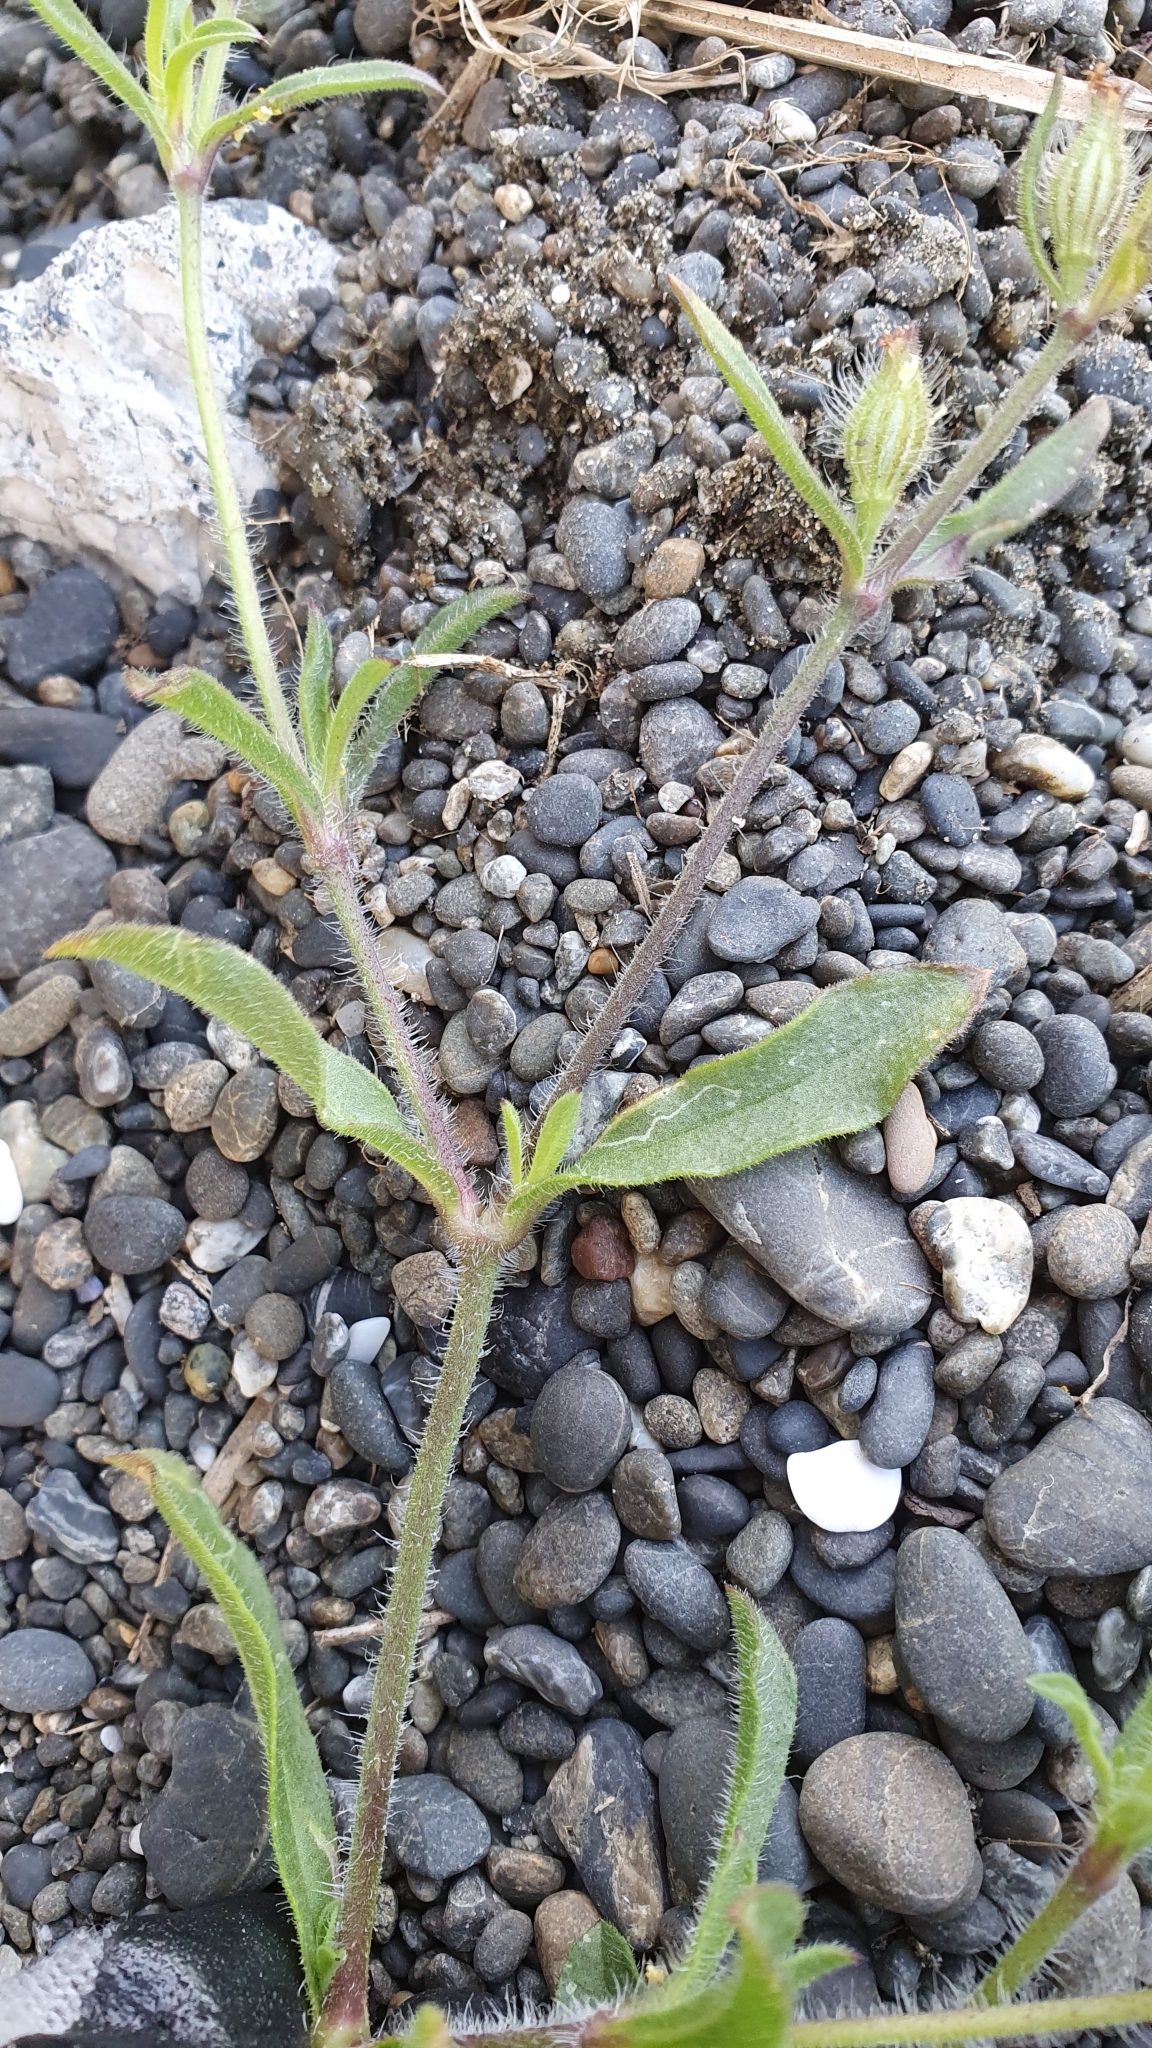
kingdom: Plantae
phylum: Tracheophyta
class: Magnoliopsida
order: Caryophyllales
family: Caryophyllaceae
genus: Silene
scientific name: Silene gallica
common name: Small-flowered catchfly
